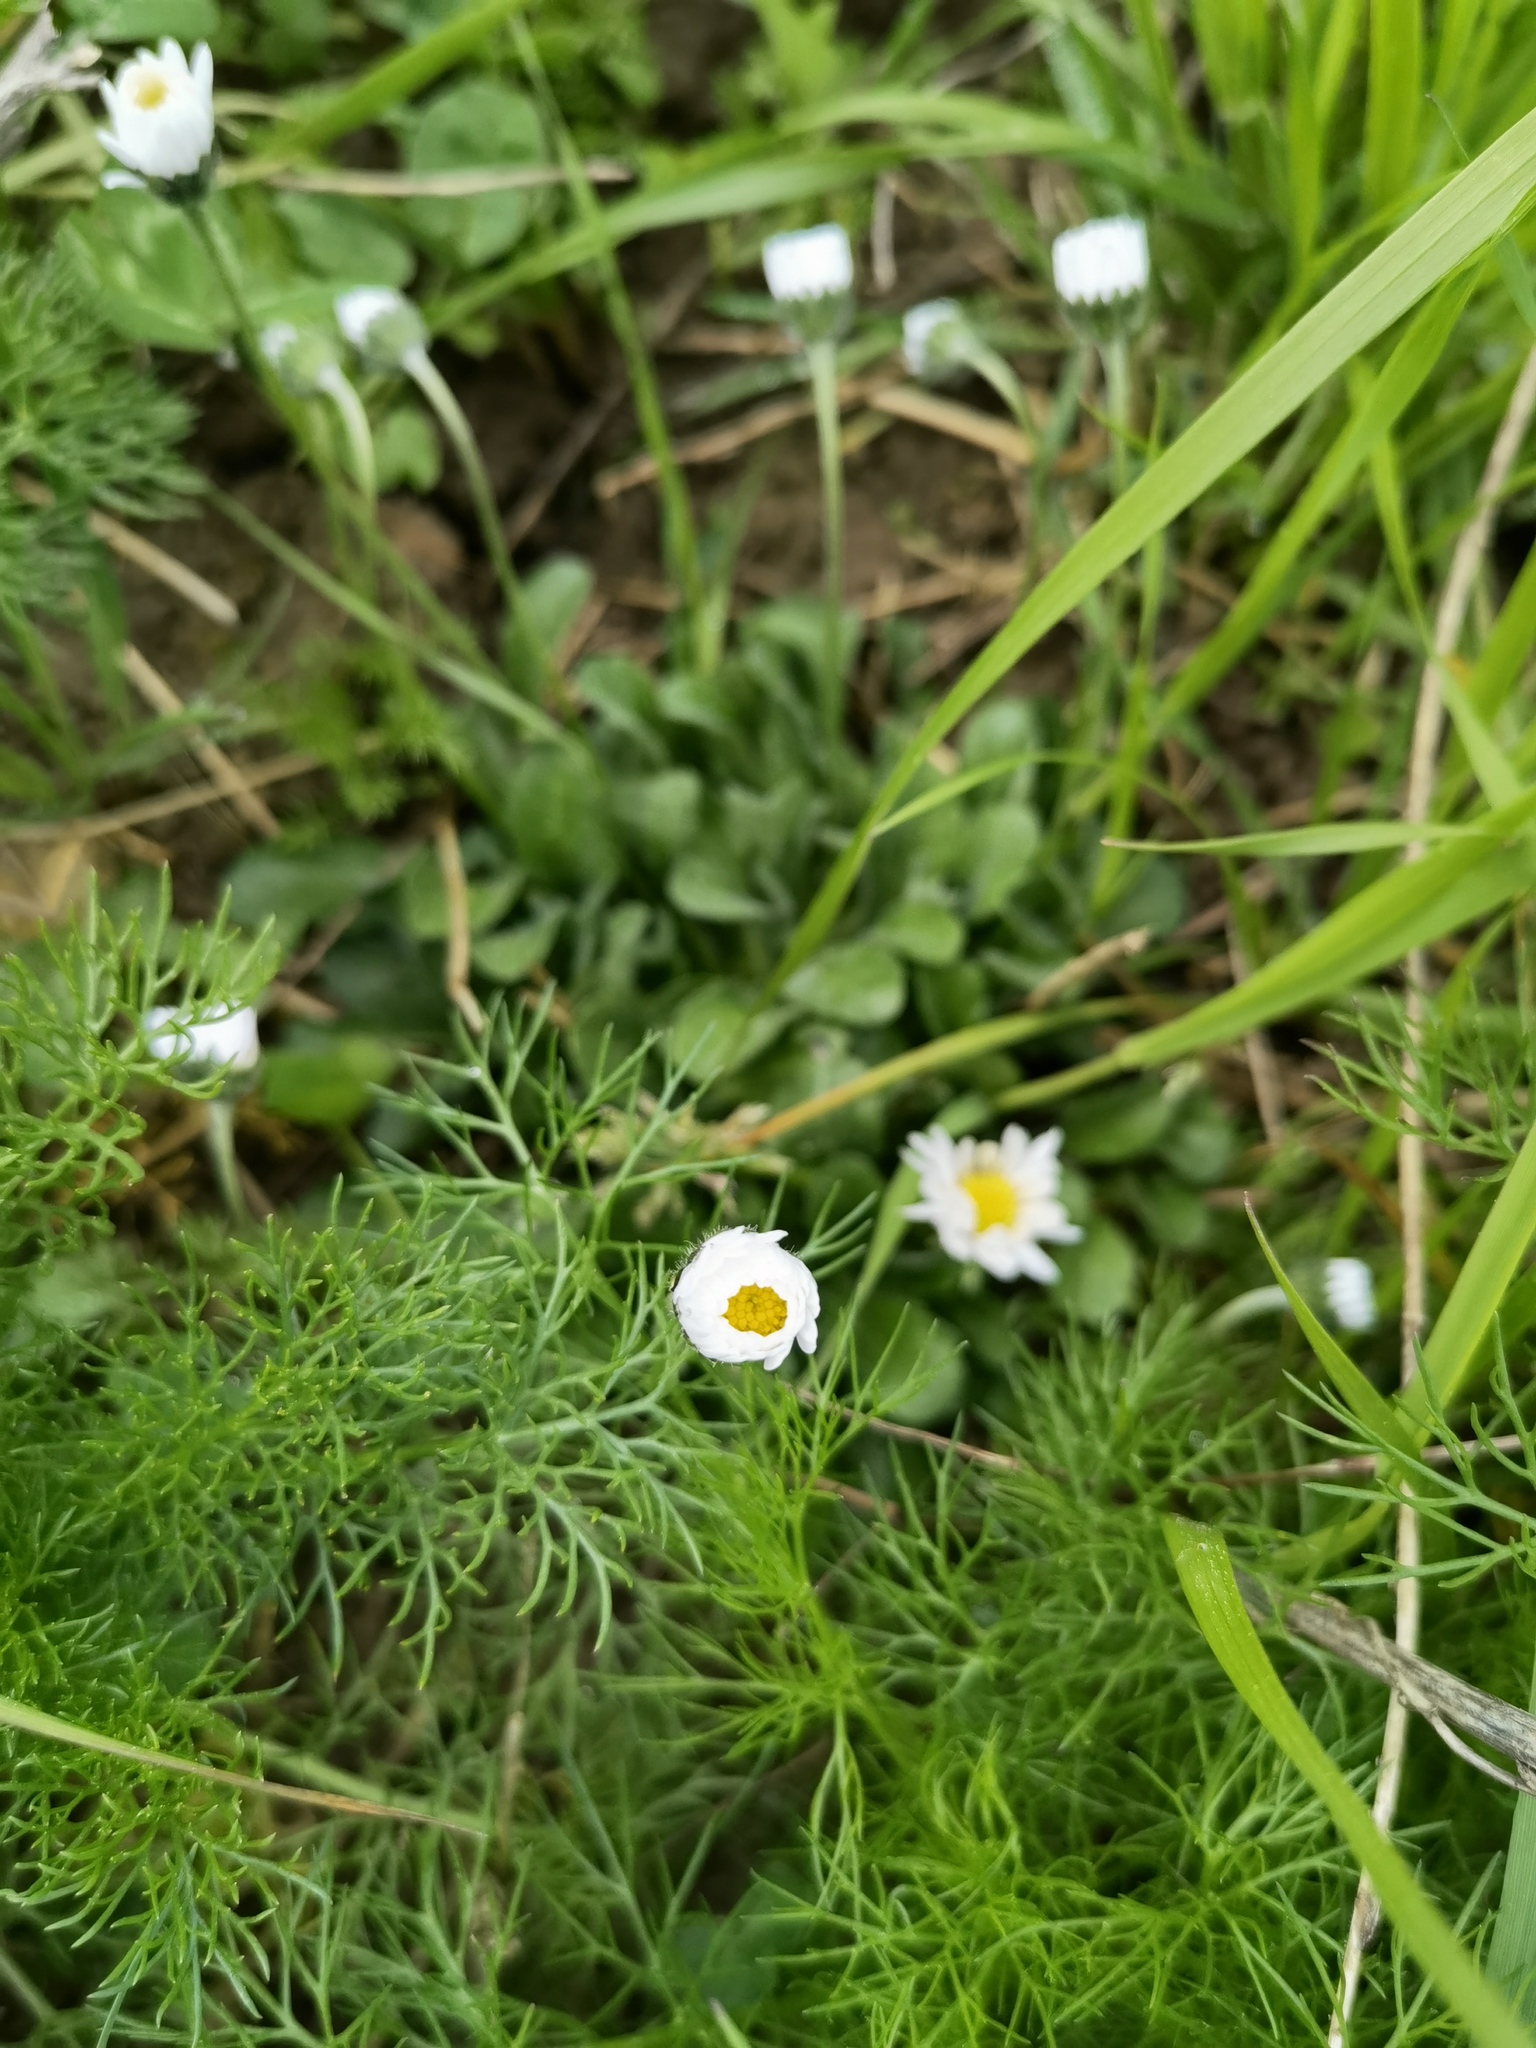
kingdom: Plantae
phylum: Tracheophyta
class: Magnoliopsida
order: Asterales
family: Asteraceae
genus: Bellis
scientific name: Bellis perennis
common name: Lawndaisy
